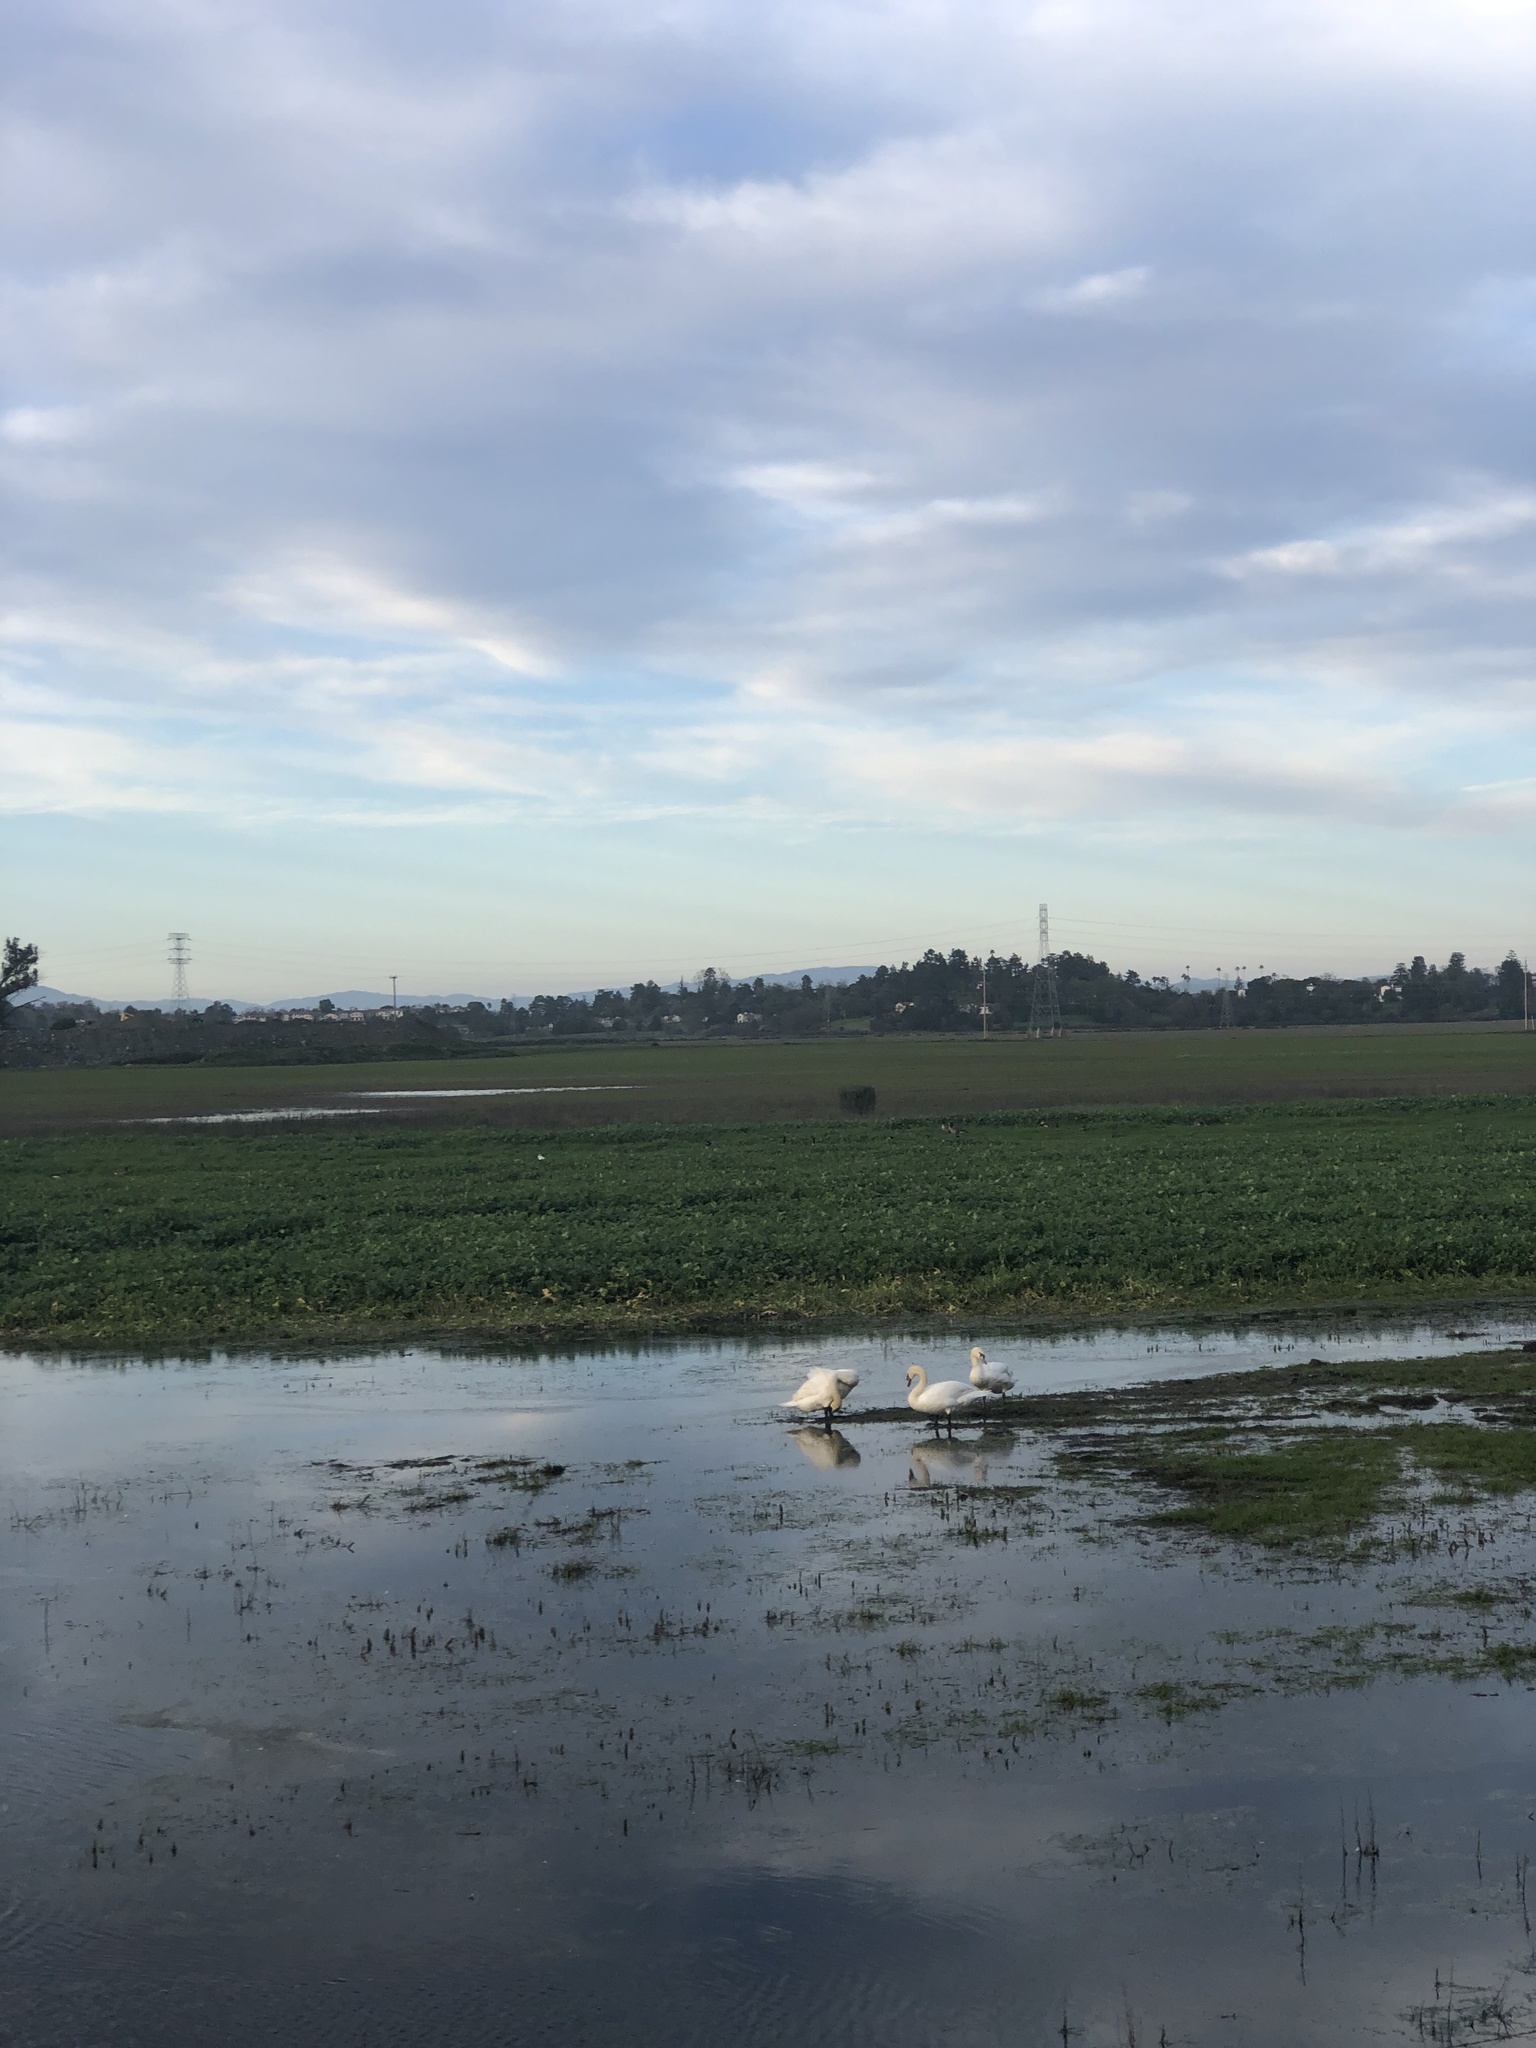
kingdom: Animalia
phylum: Chordata
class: Aves
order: Anseriformes
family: Anatidae
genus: Cygnus
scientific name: Cygnus olor
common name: Mute swan
